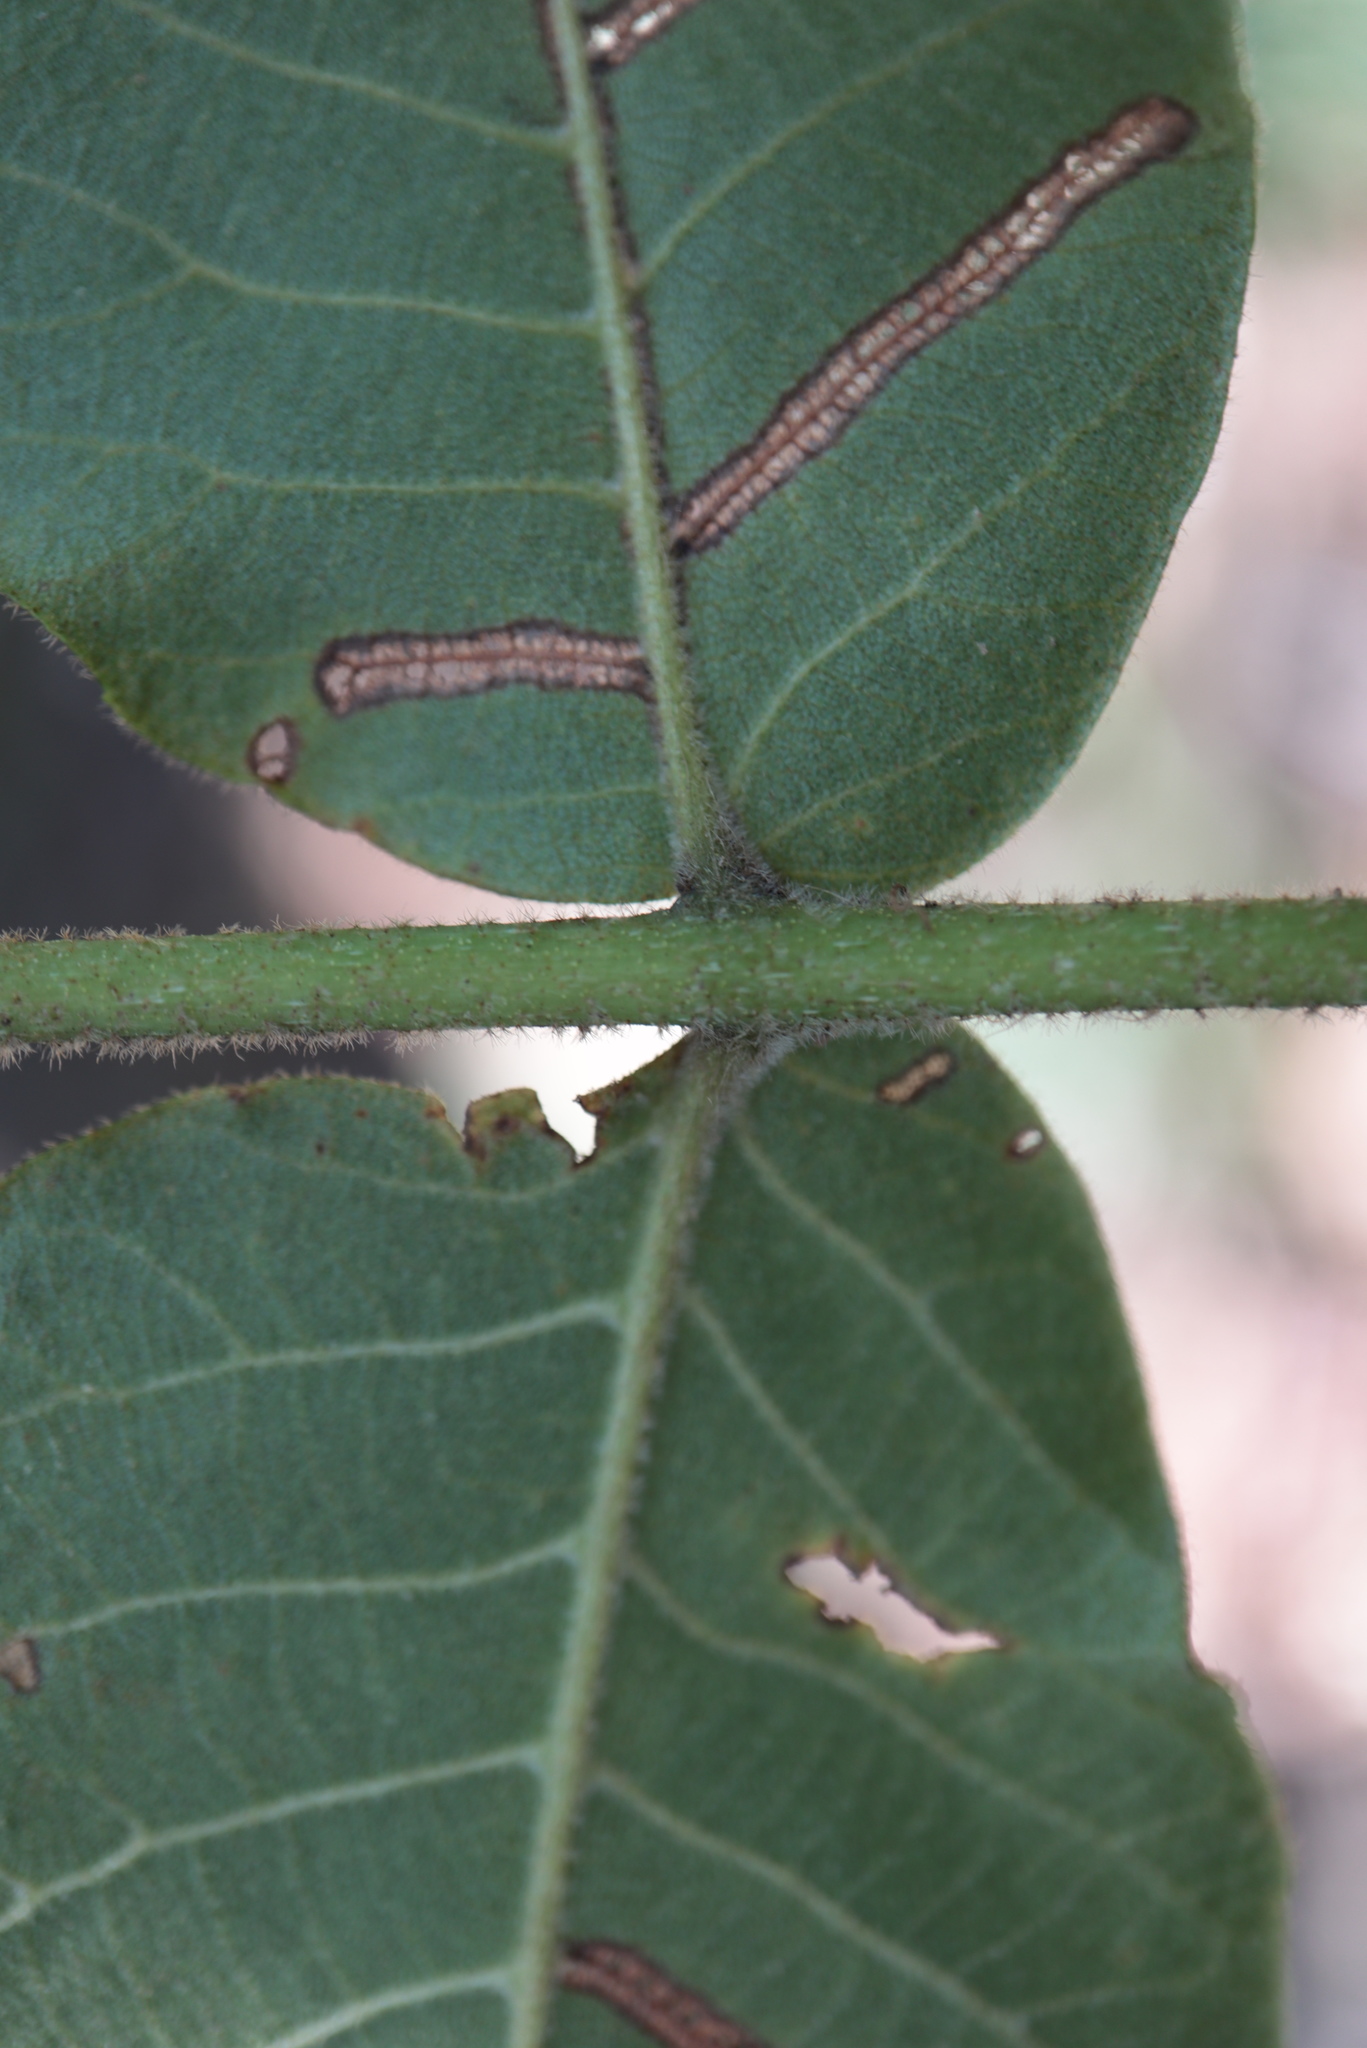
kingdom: Plantae
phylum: Tracheophyta
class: Magnoliopsida
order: Fagales
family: Juglandaceae
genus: Carya
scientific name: Carya alba
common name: Mockernut hickory
